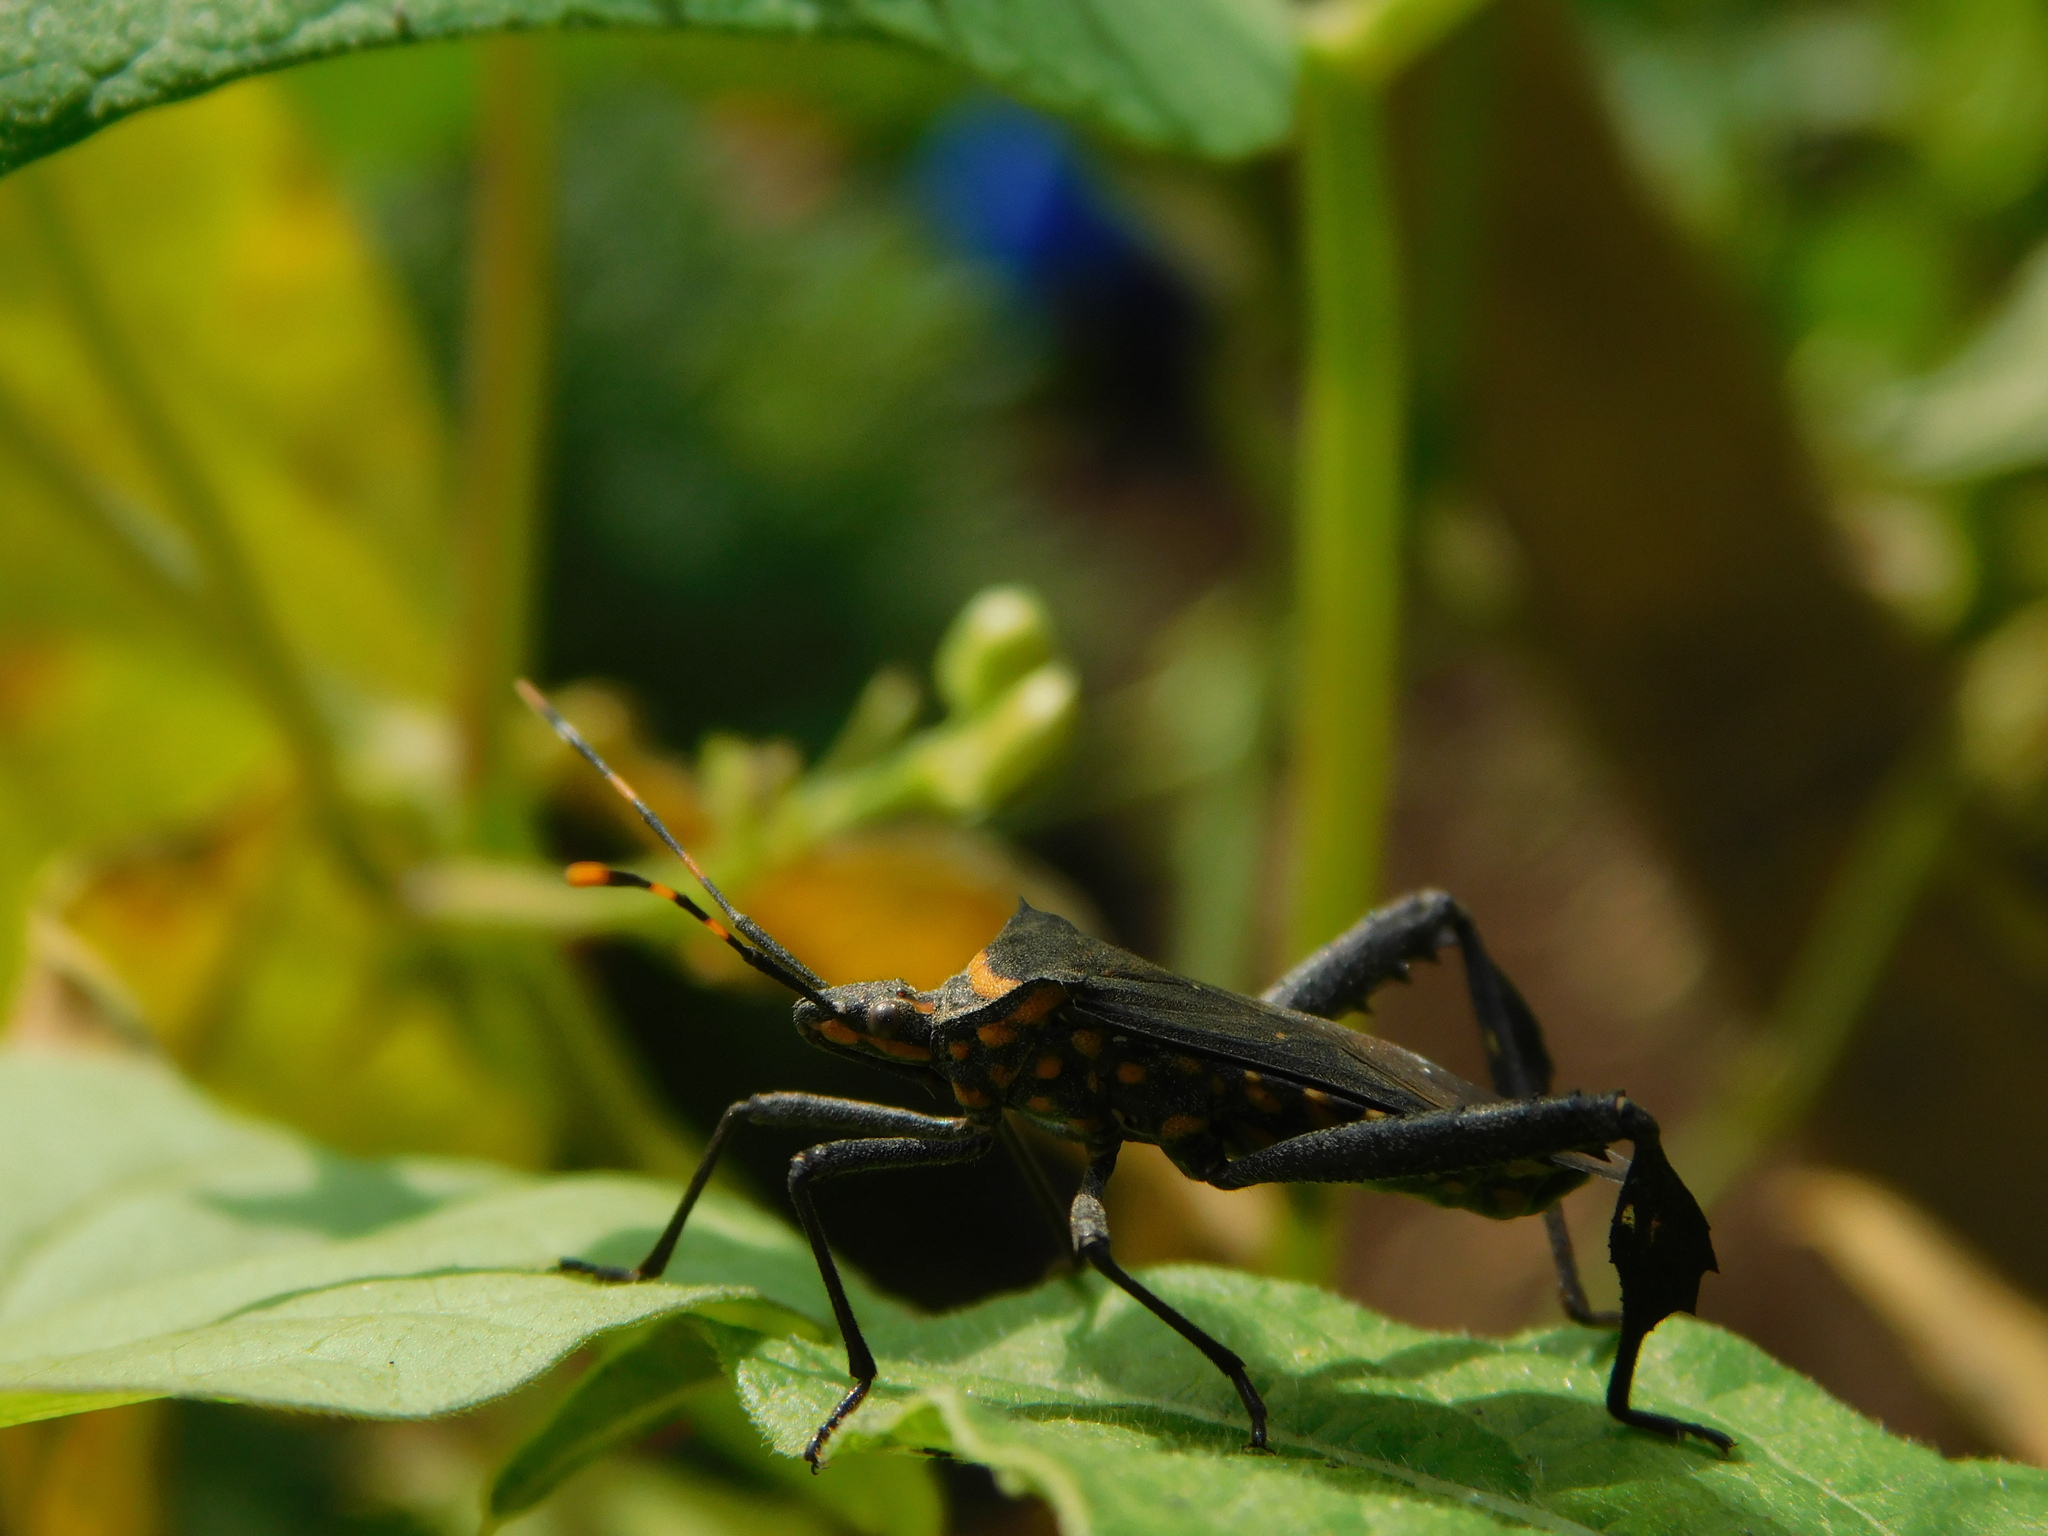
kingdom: Animalia
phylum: Arthropoda
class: Insecta
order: Hemiptera
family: Coreidae
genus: Leptoglossus
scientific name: Leptoglossus gonagra
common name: Citron bug
